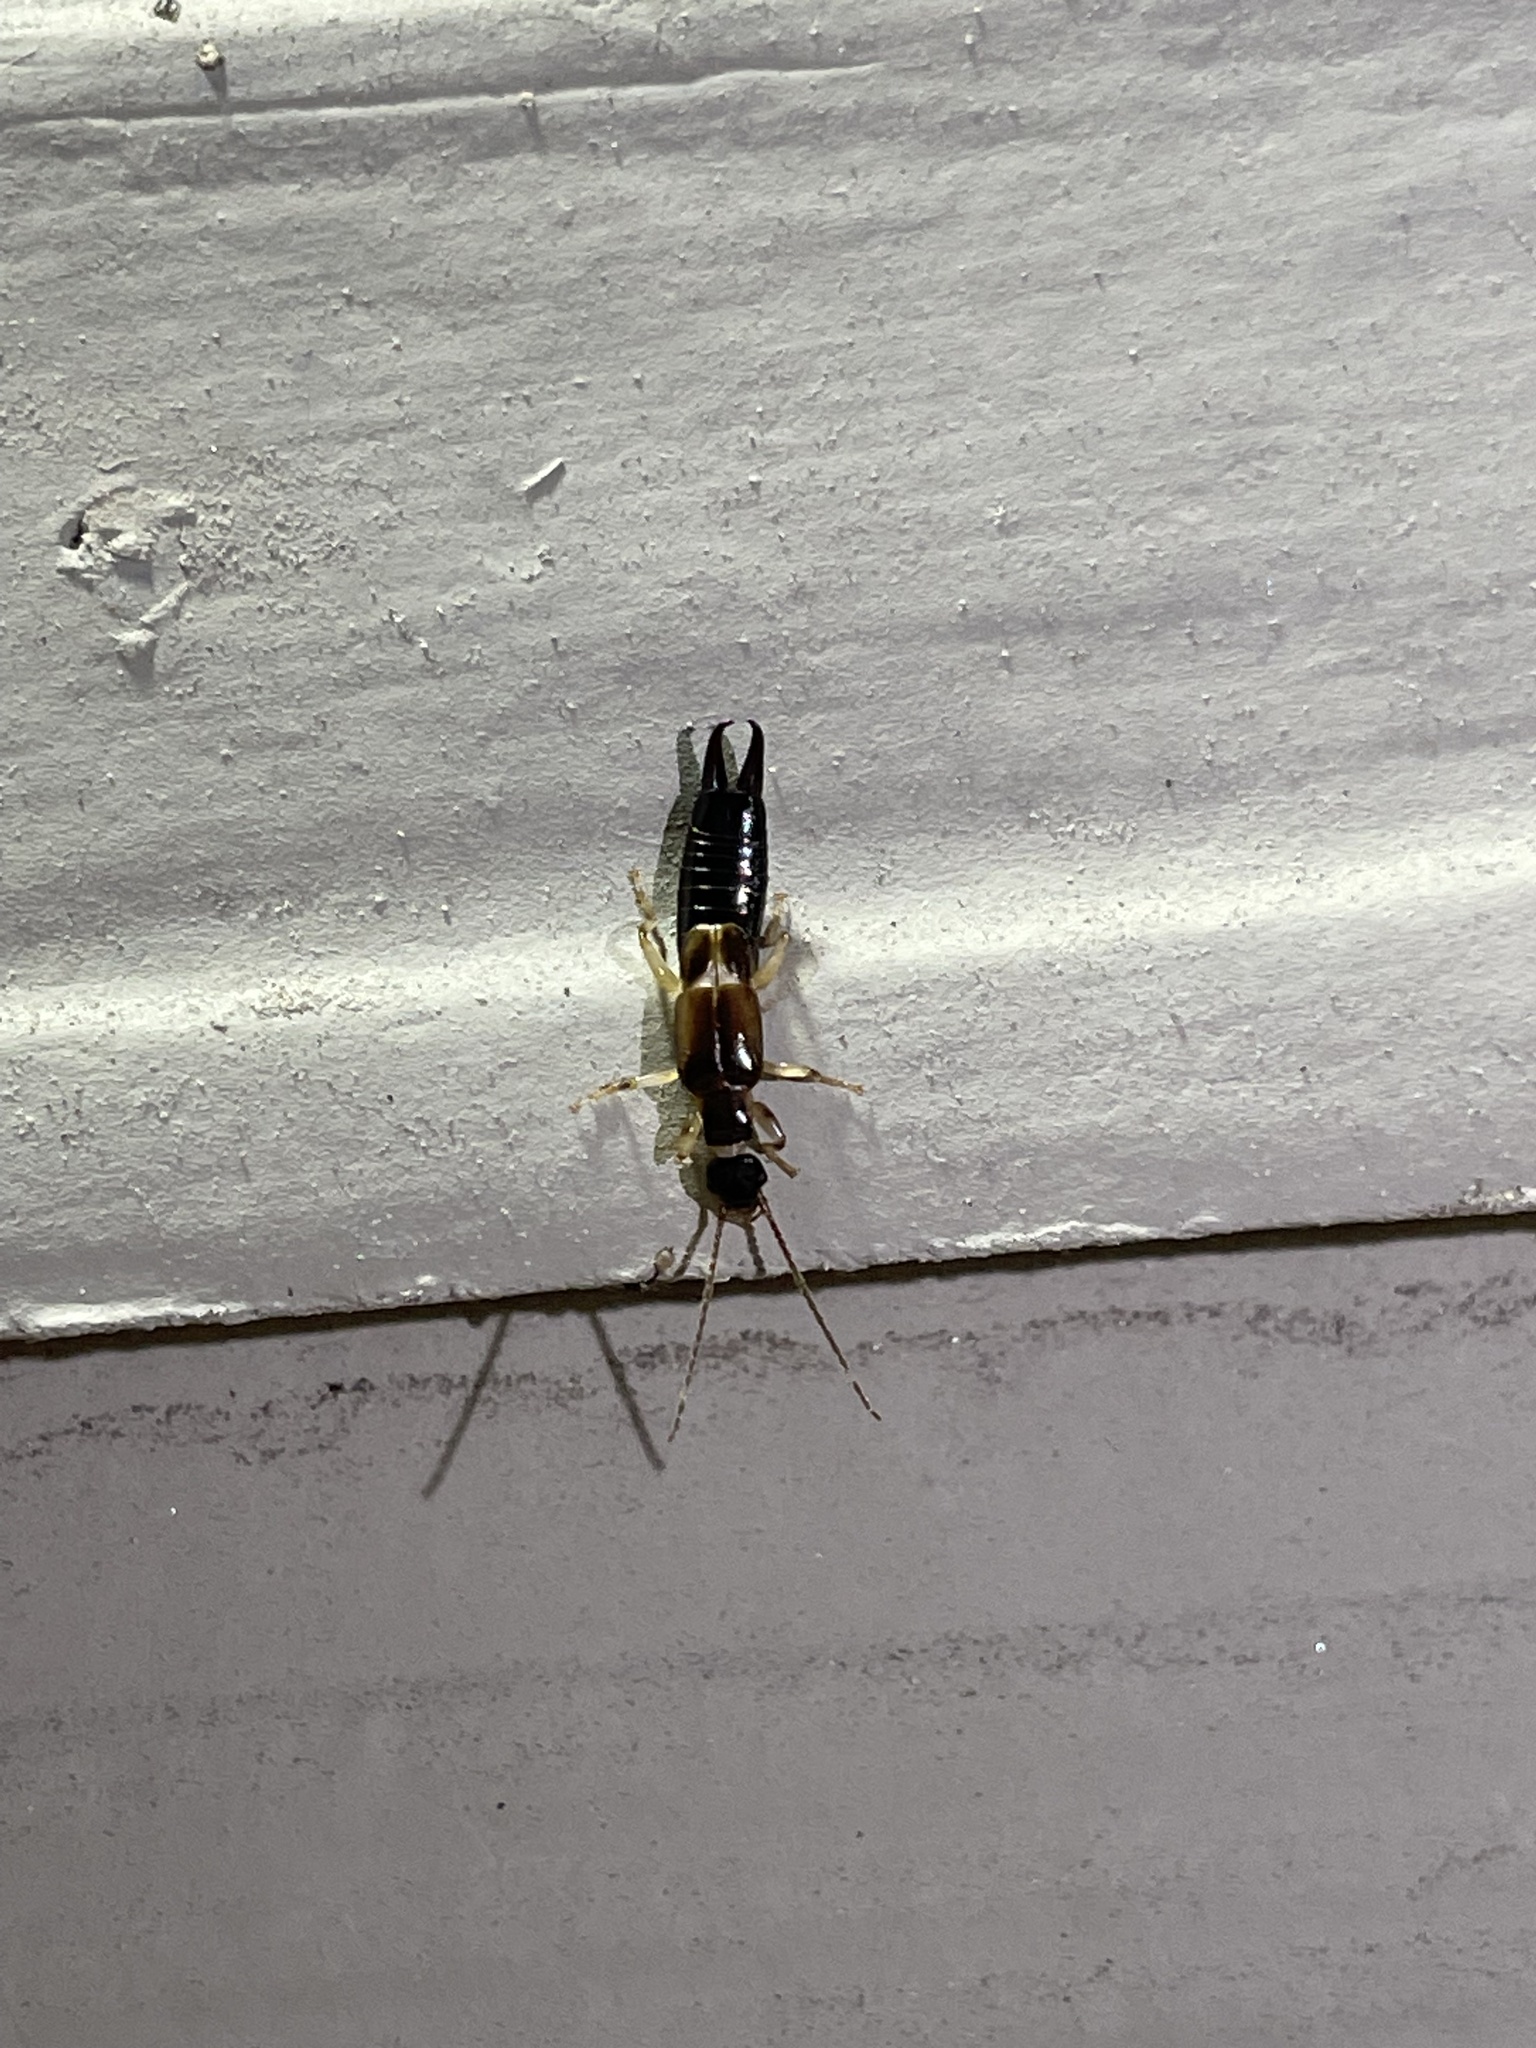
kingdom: Animalia
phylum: Arthropoda
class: Insecta
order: Dermaptera
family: Anisolabididae
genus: Euborellia
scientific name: Euborellia cincticollis
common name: African earwig
